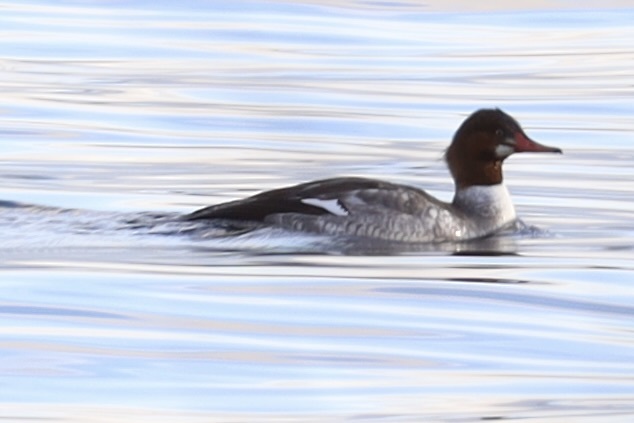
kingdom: Animalia
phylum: Chordata
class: Aves
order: Anseriformes
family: Anatidae
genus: Mergus
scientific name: Mergus merganser
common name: Common merganser
